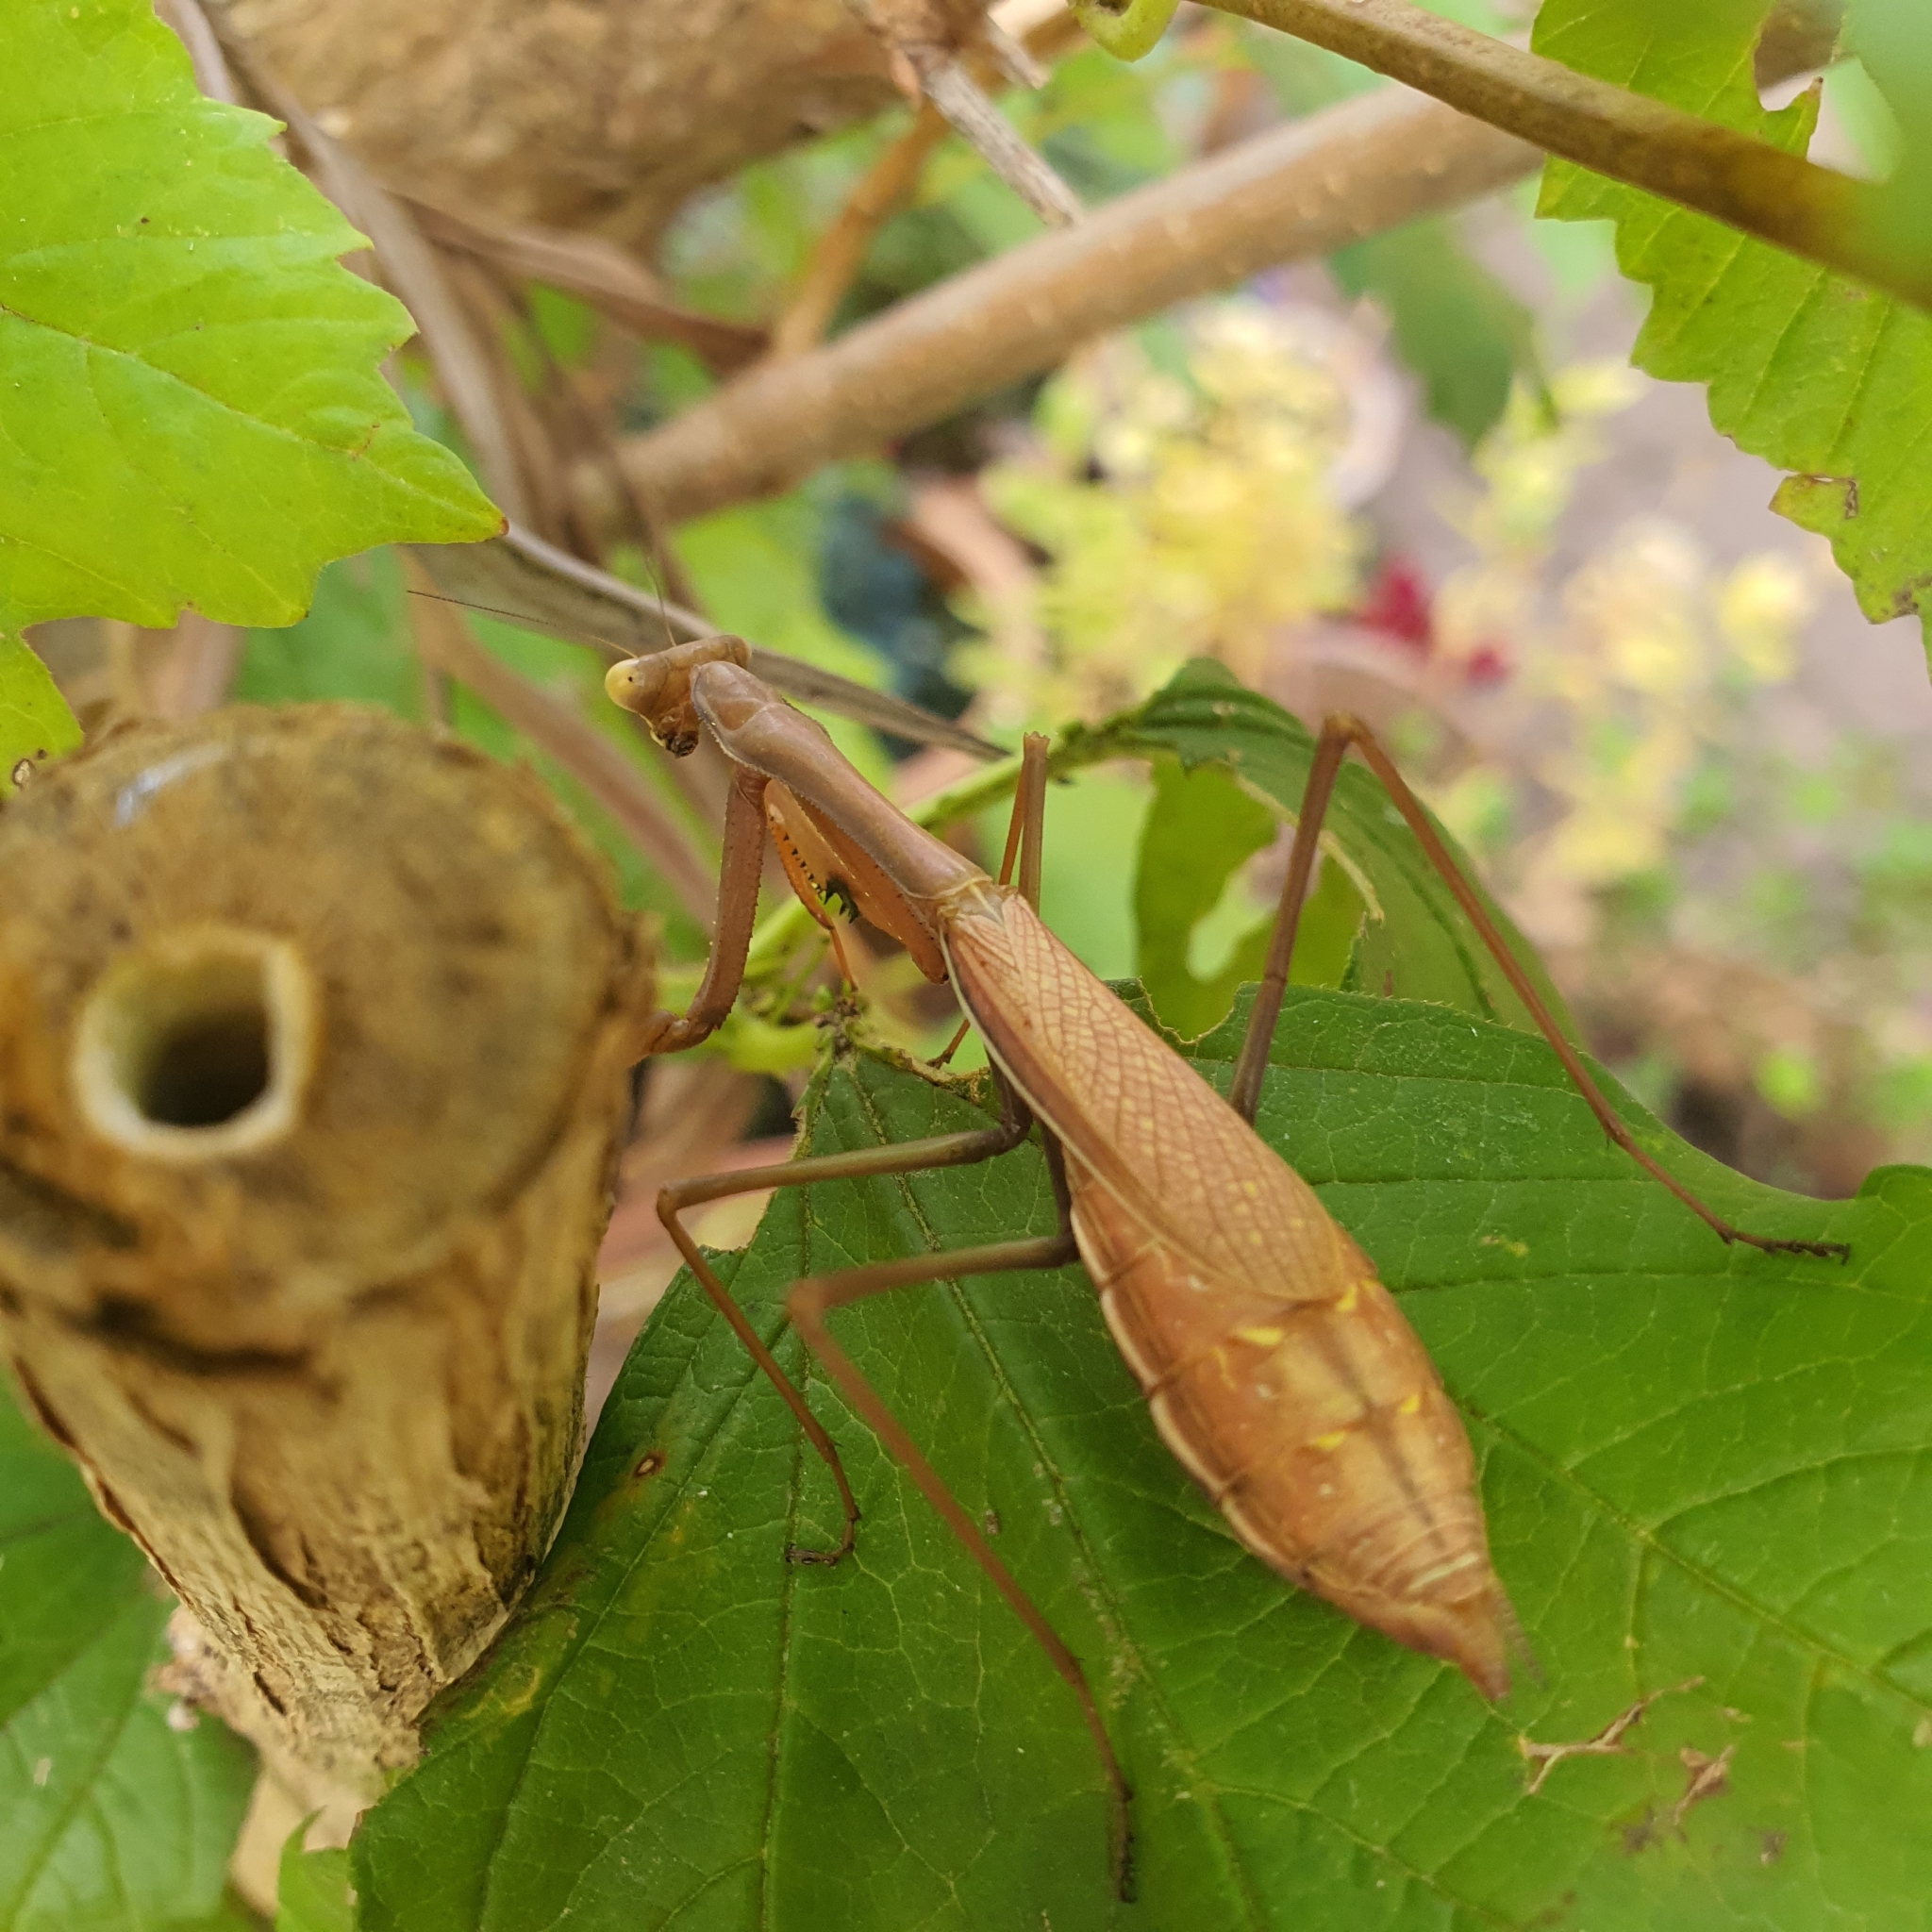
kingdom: Animalia
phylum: Arthropoda
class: Insecta
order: Mantodea
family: Mantidae
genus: Pseudomantis
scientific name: Pseudomantis albofimbriata
